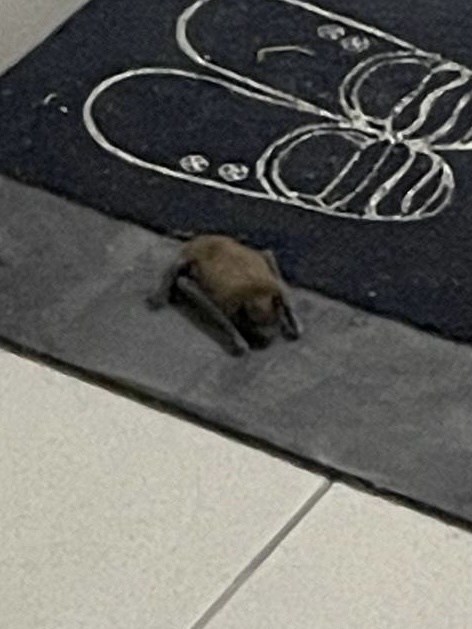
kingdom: Animalia
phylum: Chordata
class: Mammalia
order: Chiroptera
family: Vespertilionidae
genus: Nyctalus
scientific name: Nyctalus noctula
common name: Noctule
